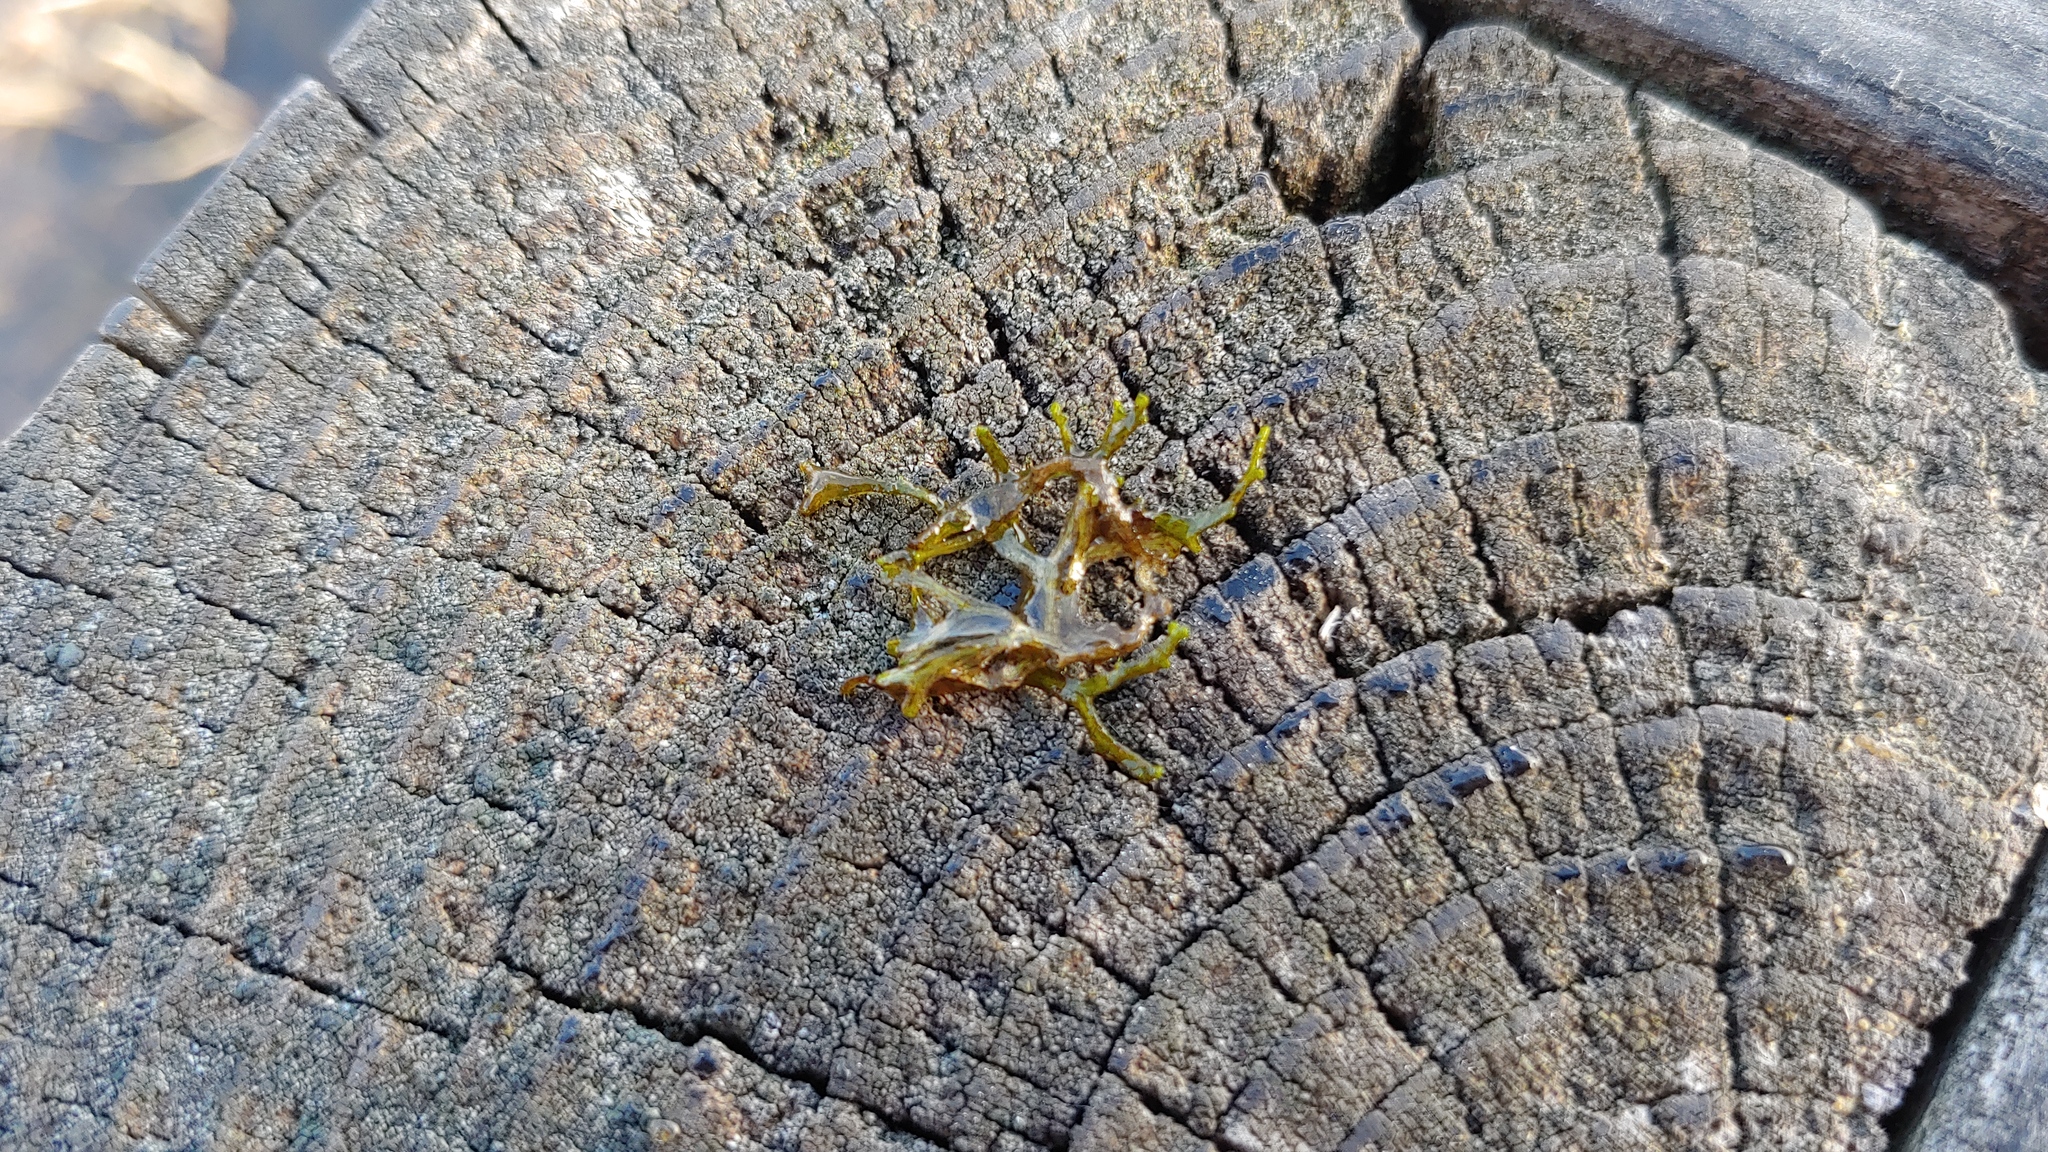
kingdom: Plantae
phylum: Marchantiophyta
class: Marchantiopsida
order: Marchantiales
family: Ricciaceae
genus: Riccia
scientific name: Riccia fluitans
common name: Floating crystalwort
